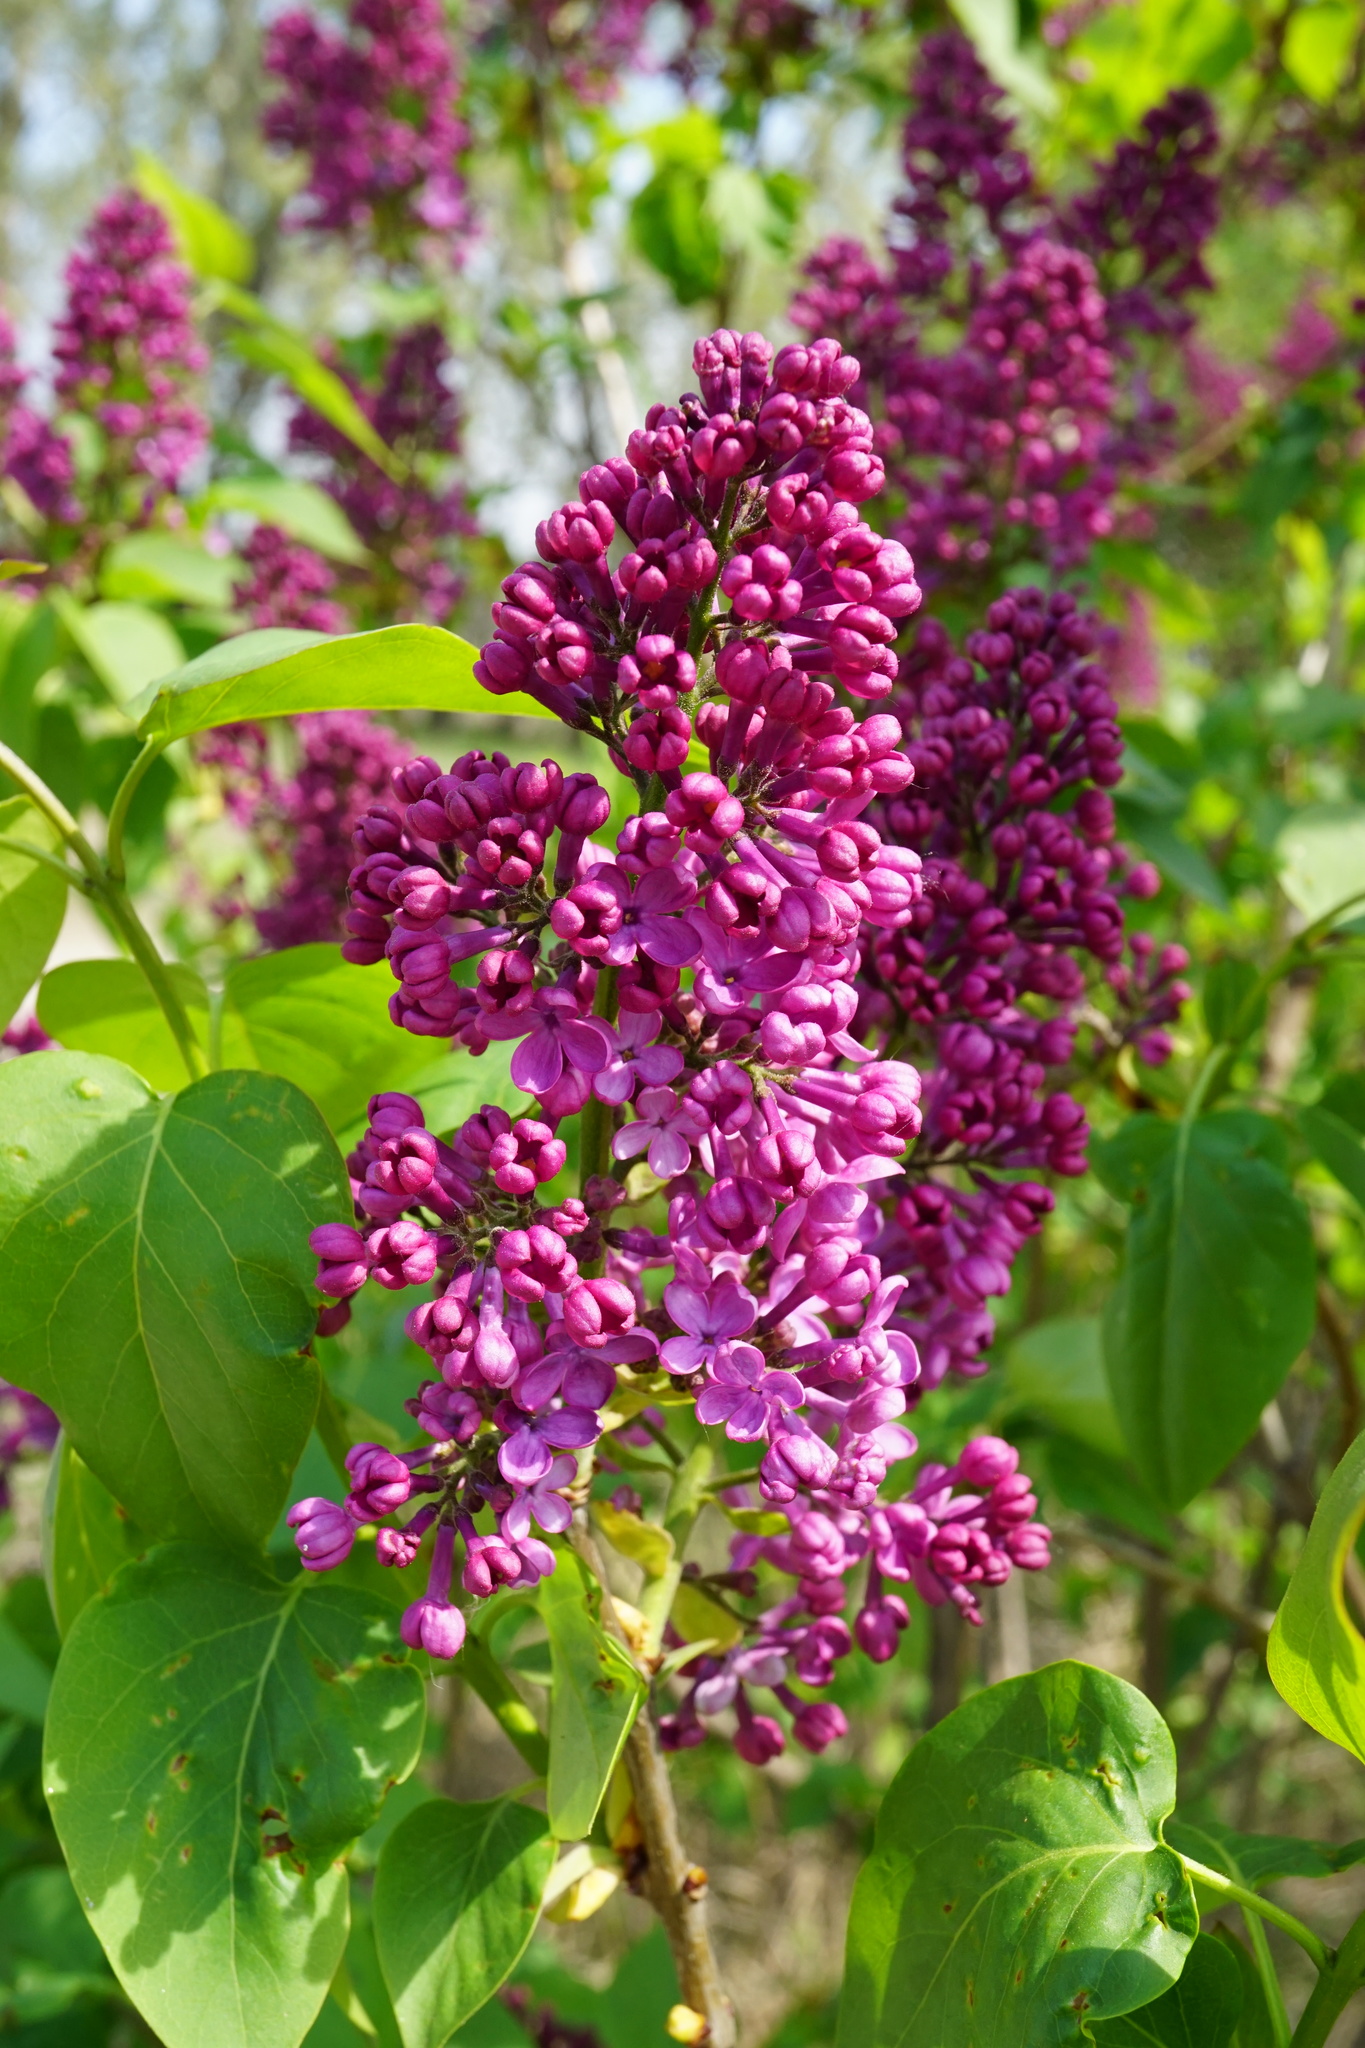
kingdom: Plantae
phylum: Tracheophyta
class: Magnoliopsida
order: Lamiales
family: Oleaceae
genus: Syringa
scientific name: Syringa vulgaris
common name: Common lilac
